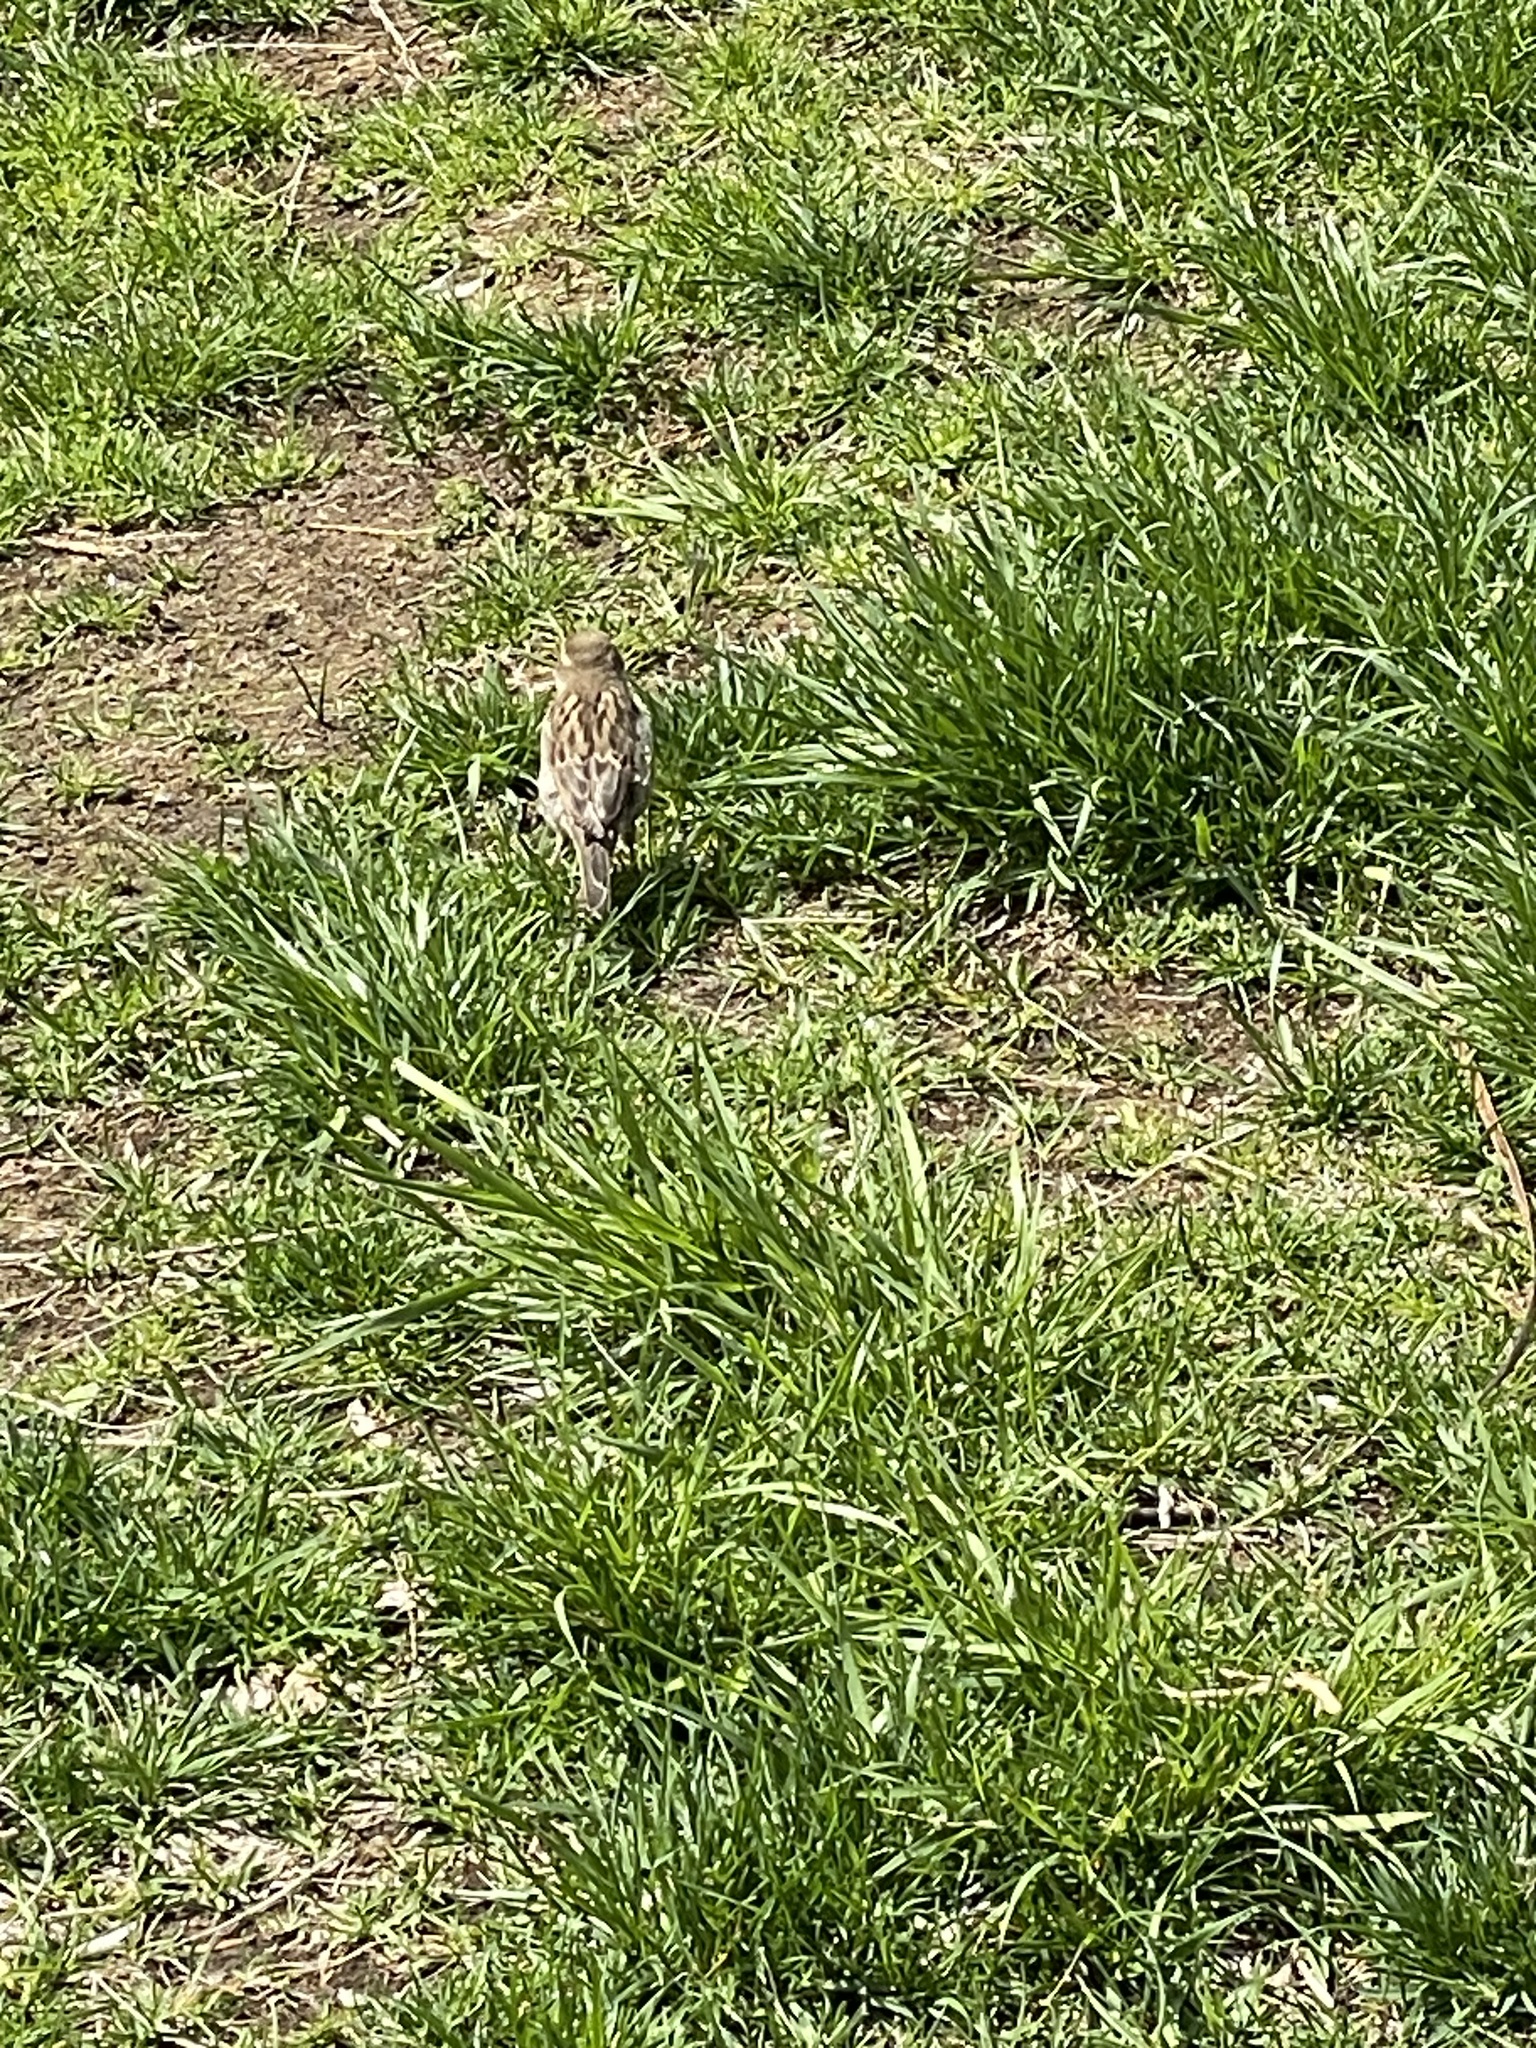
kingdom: Animalia
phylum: Chordata
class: Aves
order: Passeriformes
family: Passeridae
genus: Passer
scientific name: Passer domesticus
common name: House sparrow
